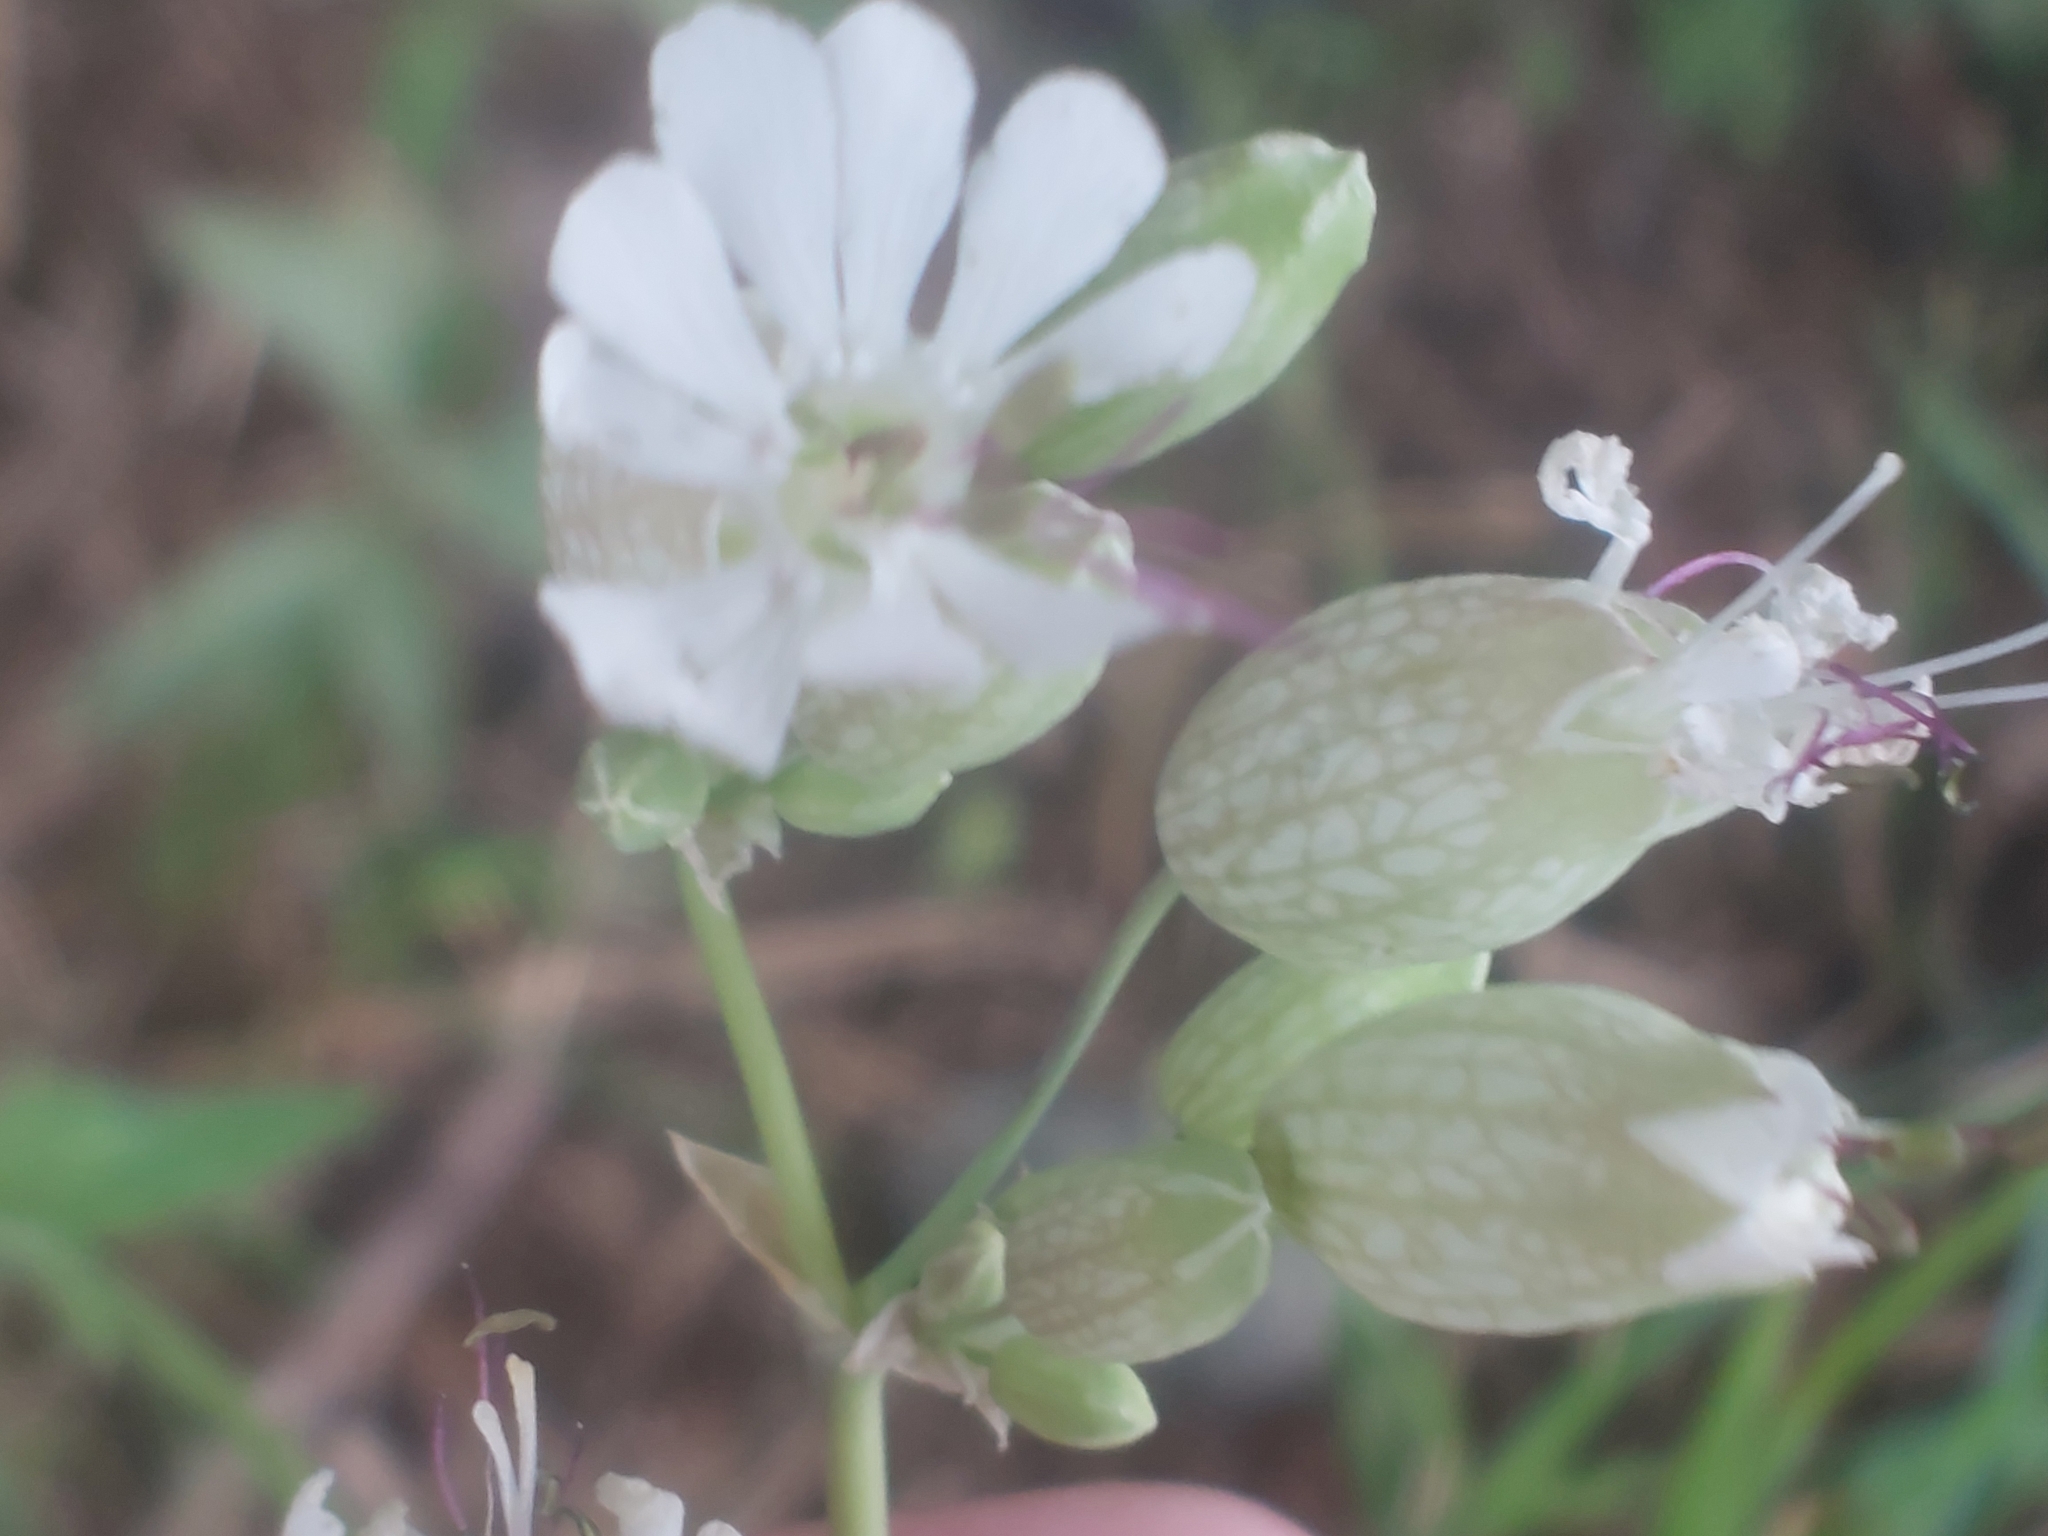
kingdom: Plantae
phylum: Tracheophyta
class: Magnoliopsida
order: Caryophyllales
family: Caryophyllaceae
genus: Silene
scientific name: Silene vulgaris
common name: Bladder campion
